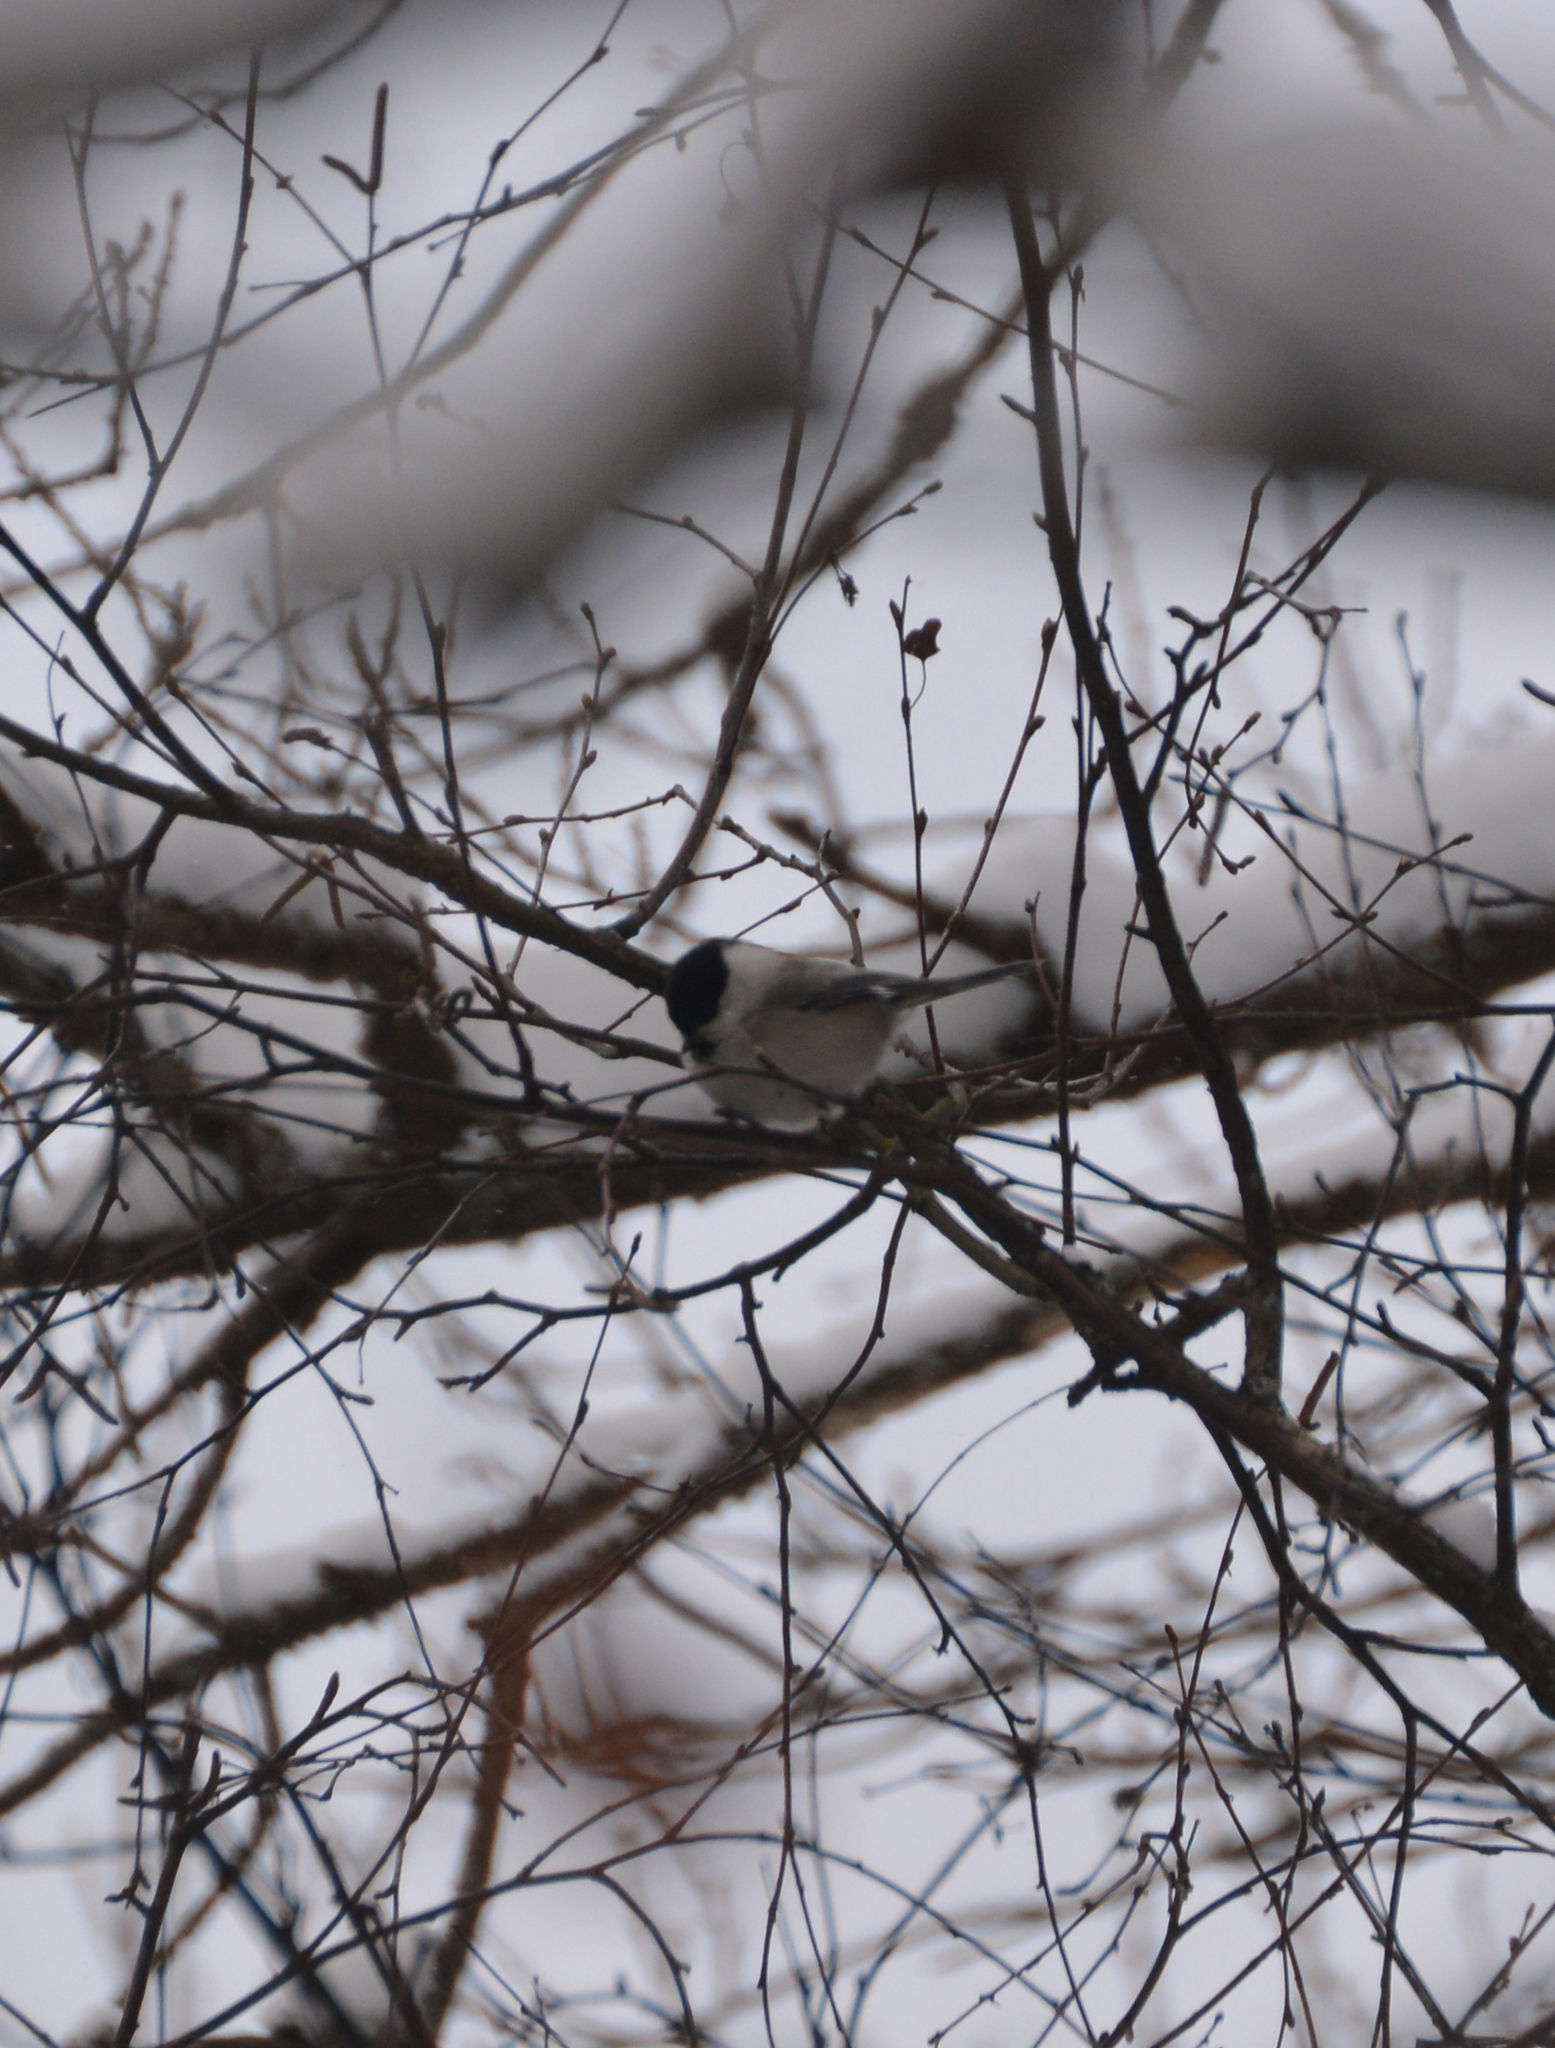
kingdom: Animalia
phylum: Chordata
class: Aves
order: Passeriformes
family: Paridae
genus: Poecile
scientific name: Poecile montanus
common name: Willow tit
